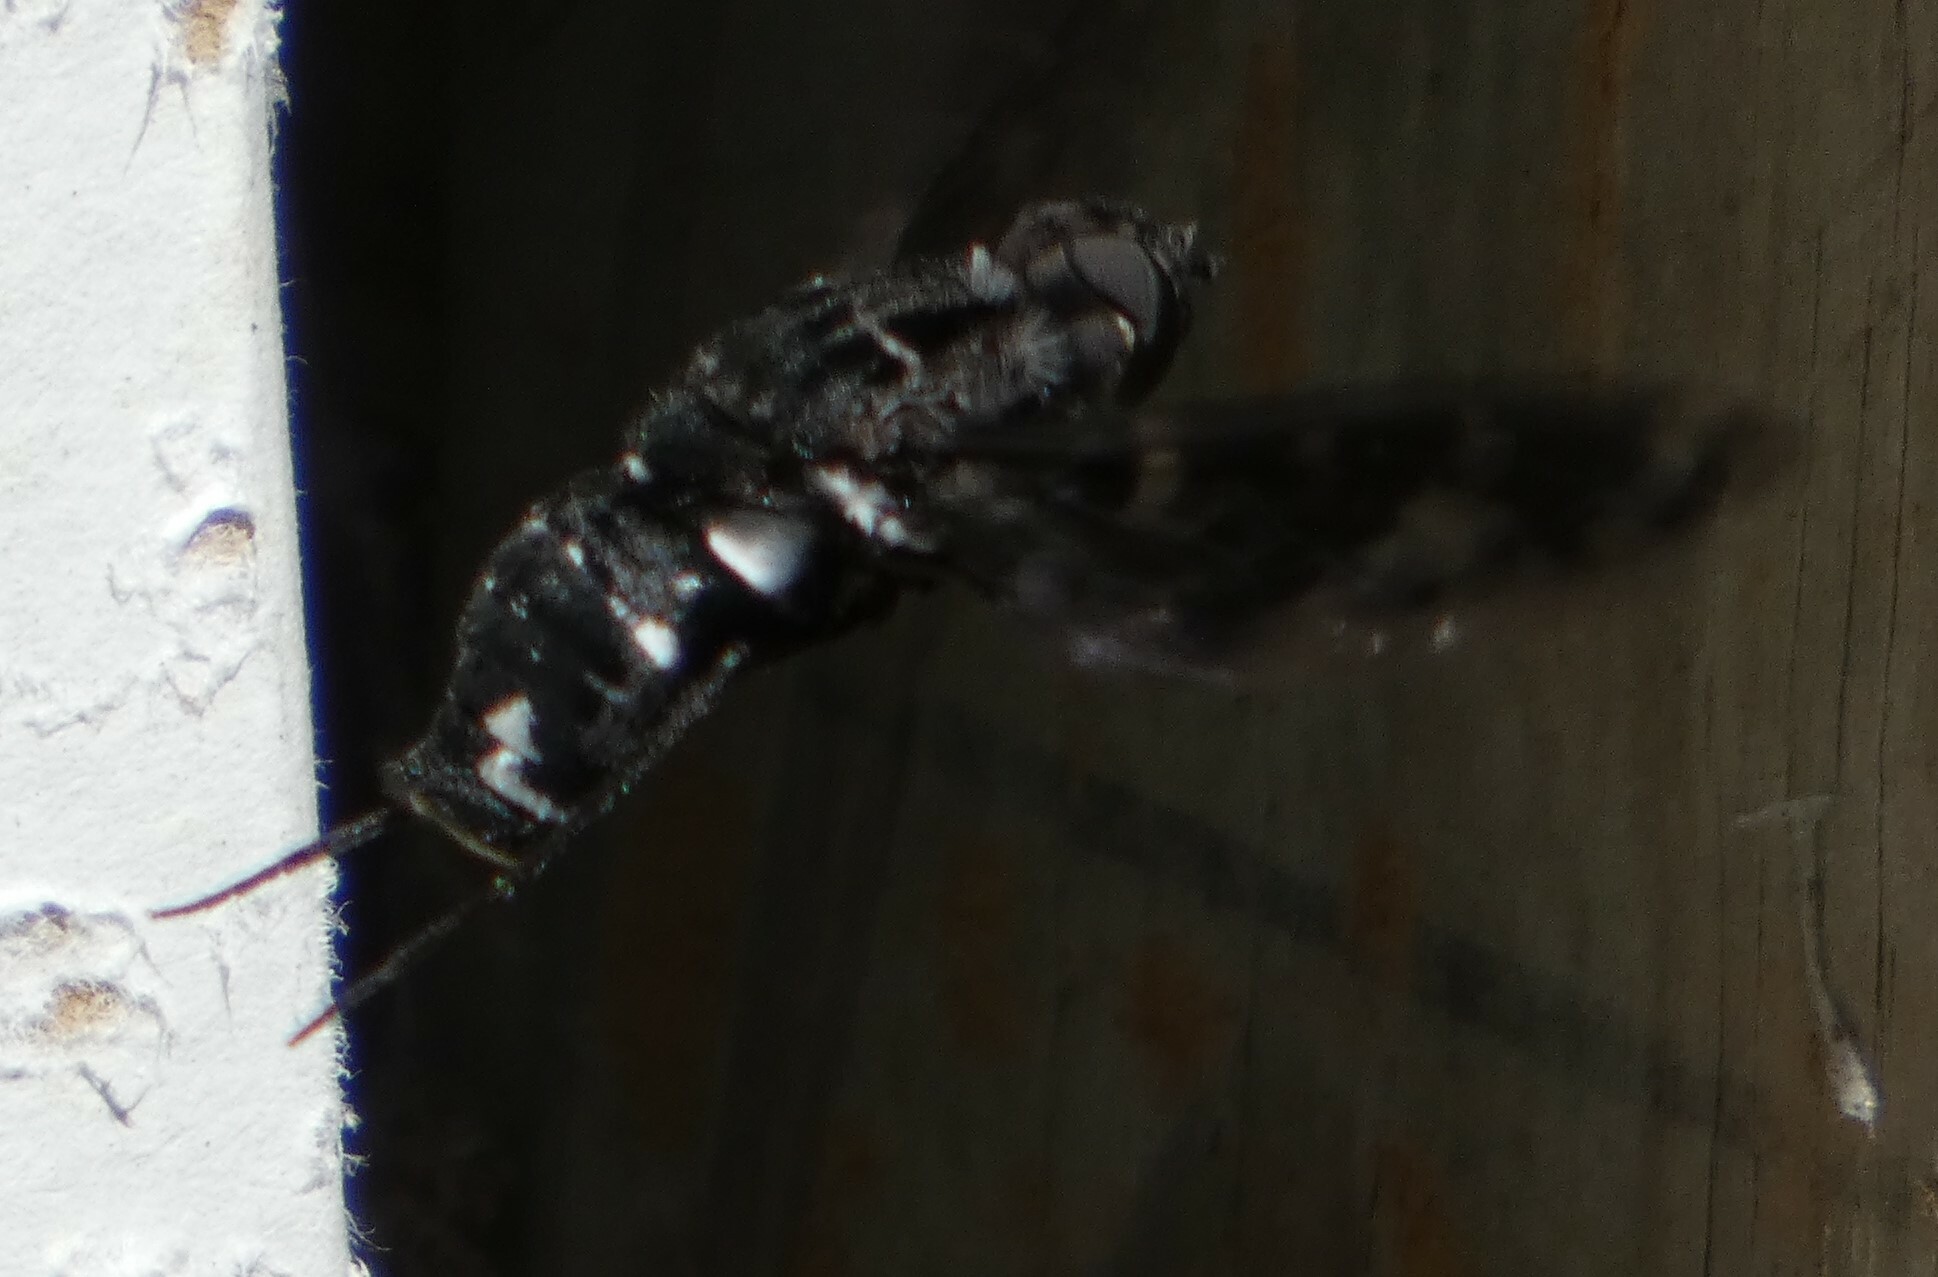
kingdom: Animalia
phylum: Arthropoda
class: Insecta
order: Diptera
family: Bombyliidae
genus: Xenox
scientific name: Xenox tigrinus
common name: Tiger bee fly
